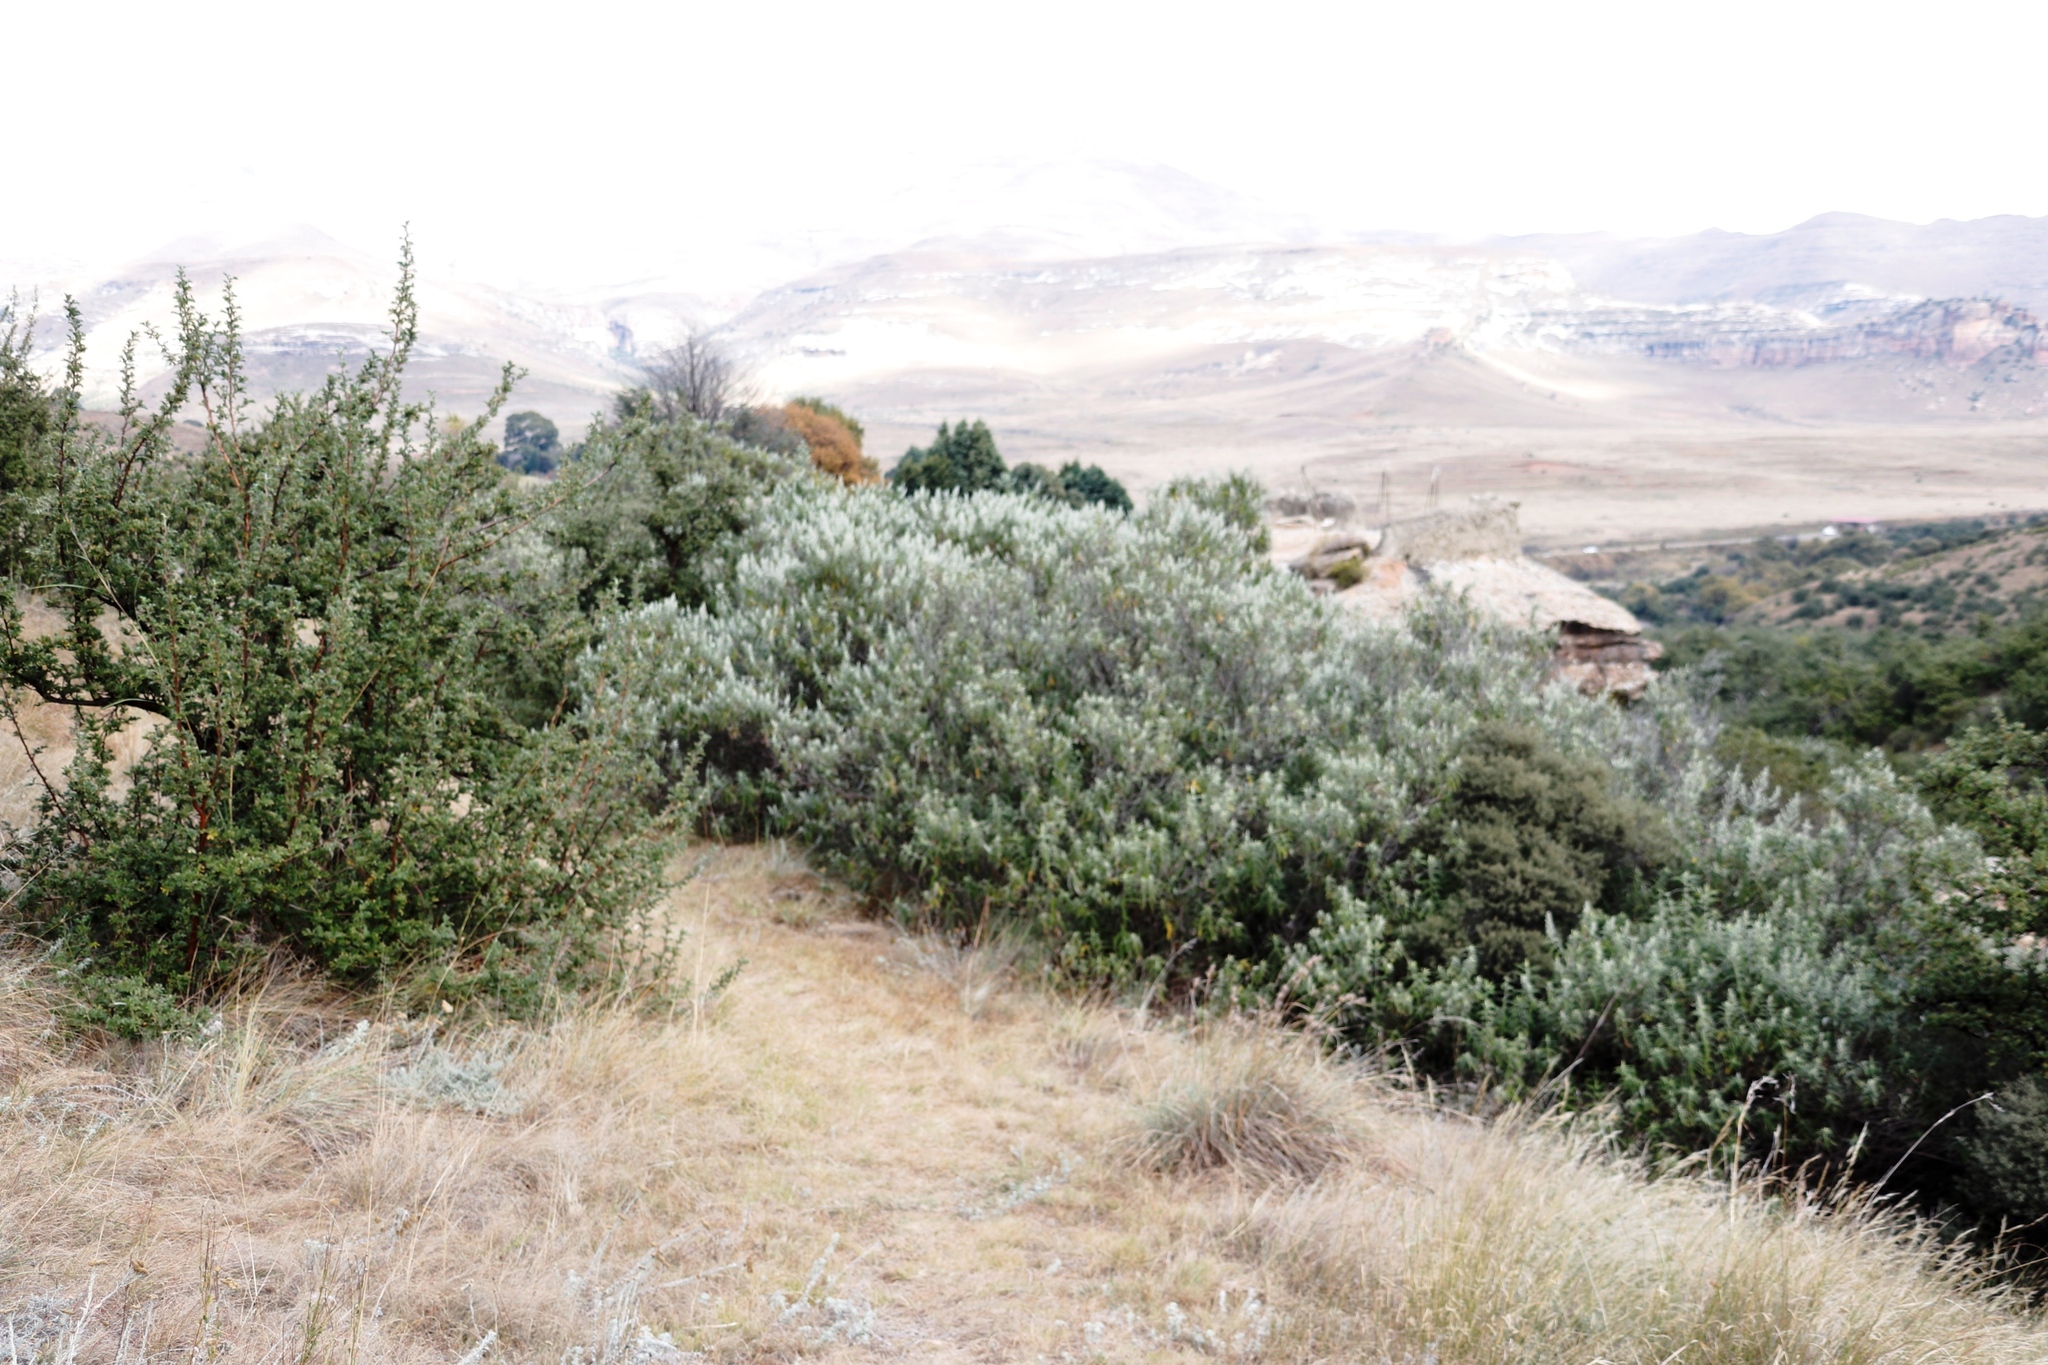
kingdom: Plantae
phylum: Tracheophyta
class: Magnoliopsida
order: Lamiales
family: Scrophulariaceae
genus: Buddleja
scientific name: Buddleja salviifolia
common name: Sagewood
